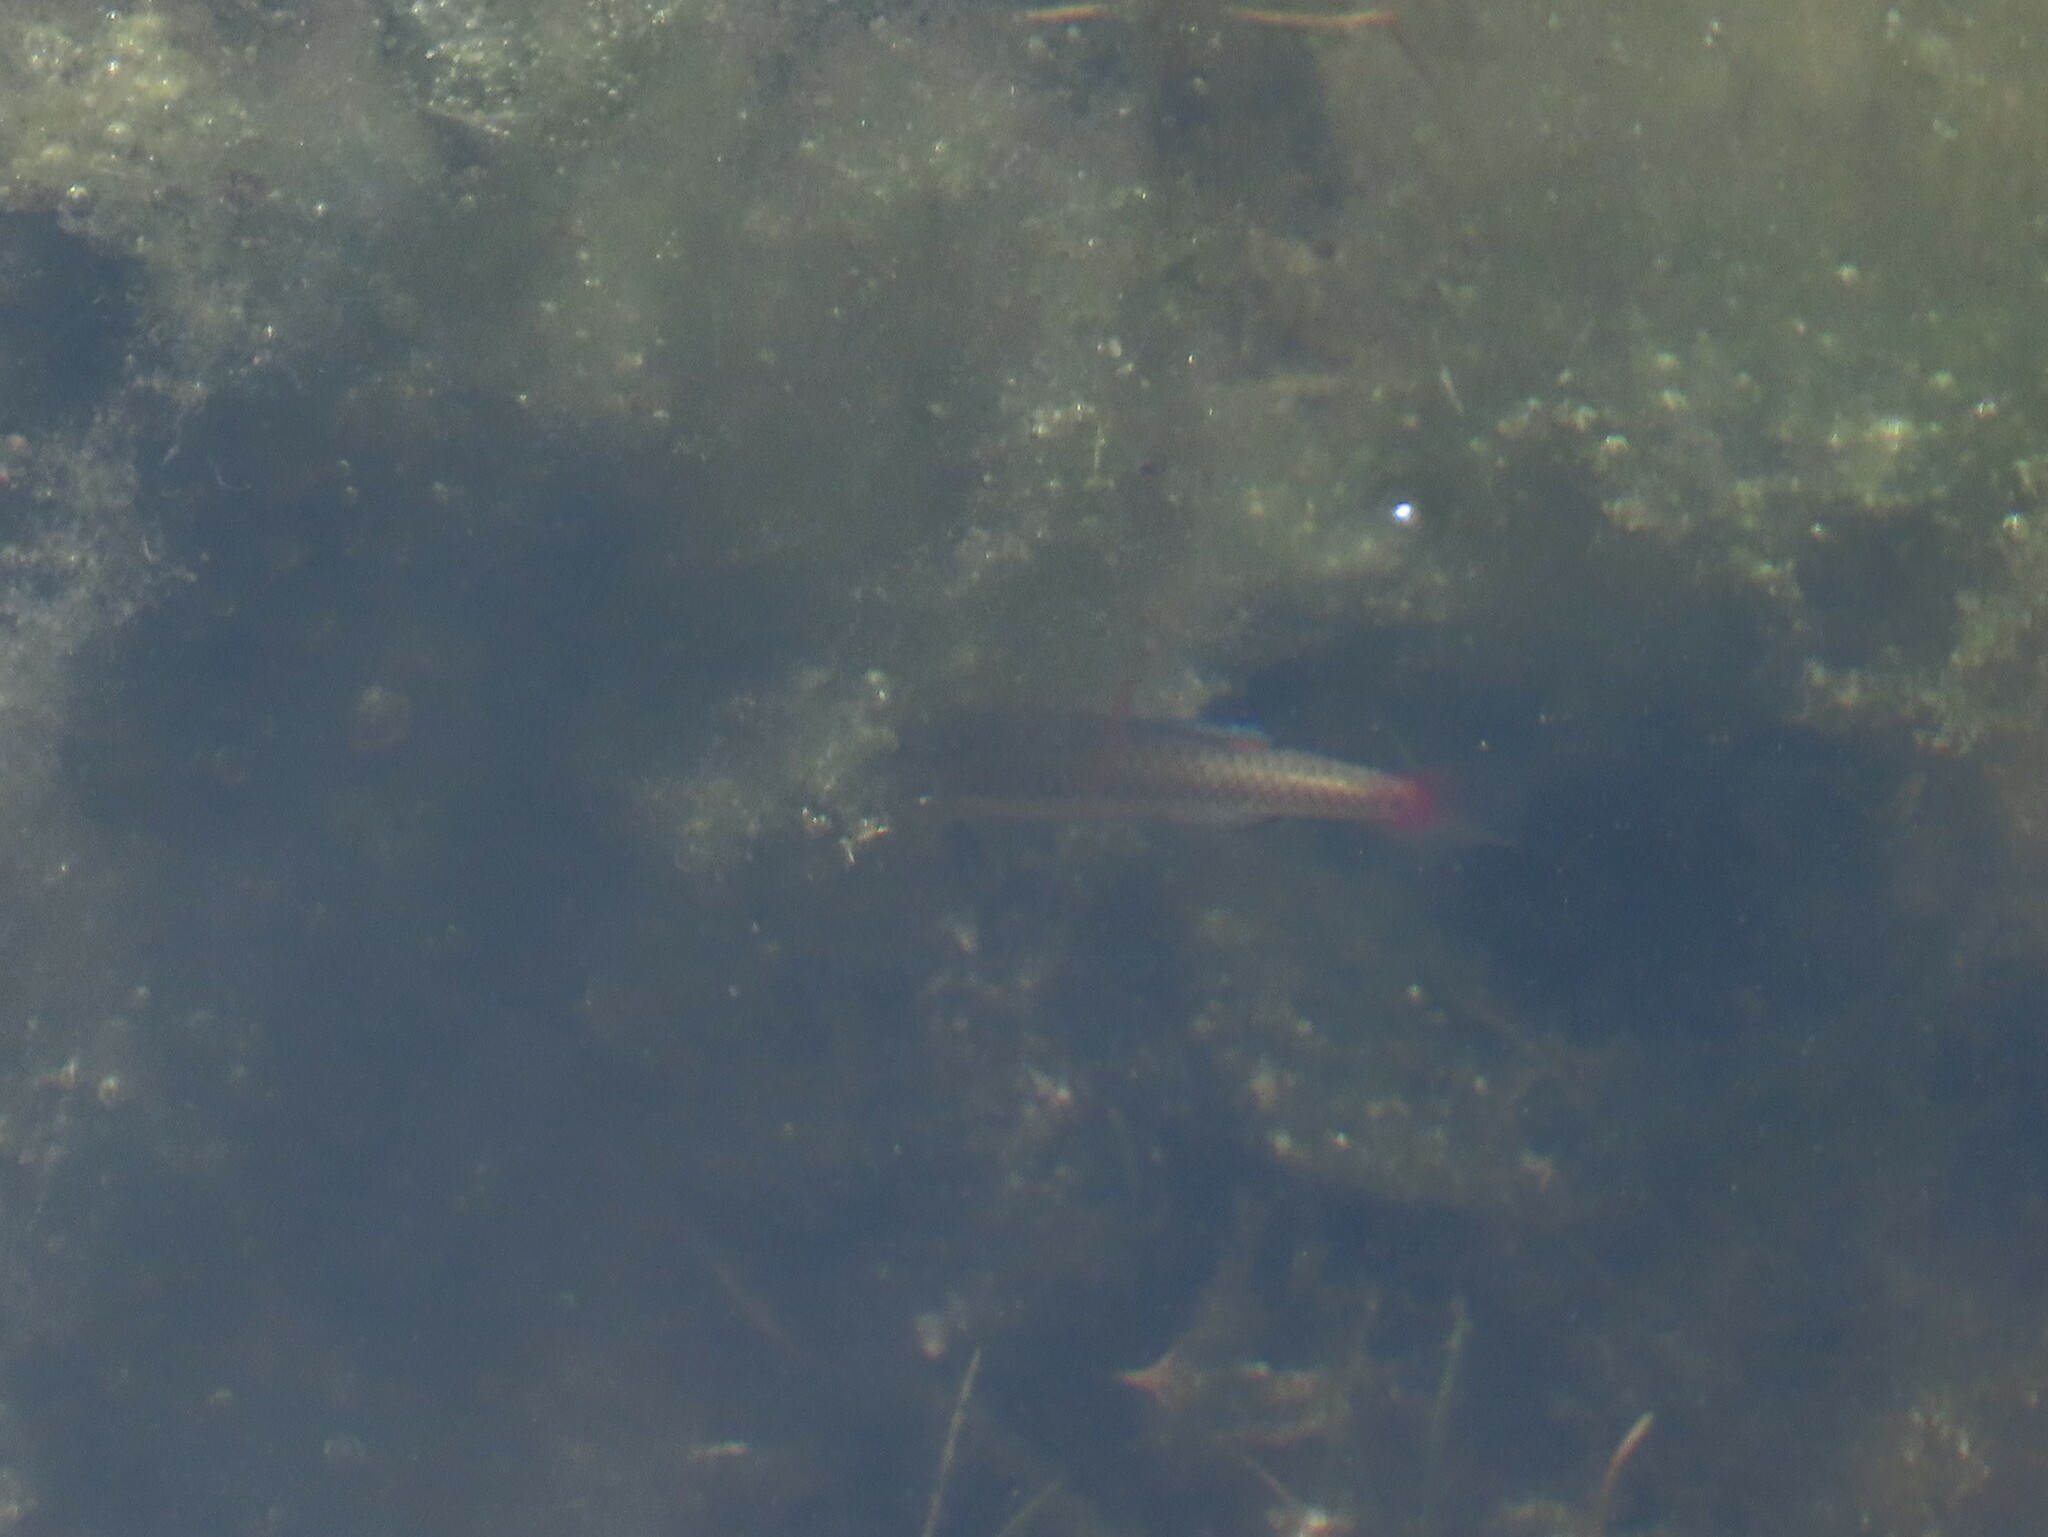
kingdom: Animalia
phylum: Chordata
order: Cyprinodontiformes
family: Fundulidae
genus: Lucania
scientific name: Lucania goodei
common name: Bluefin killifish
